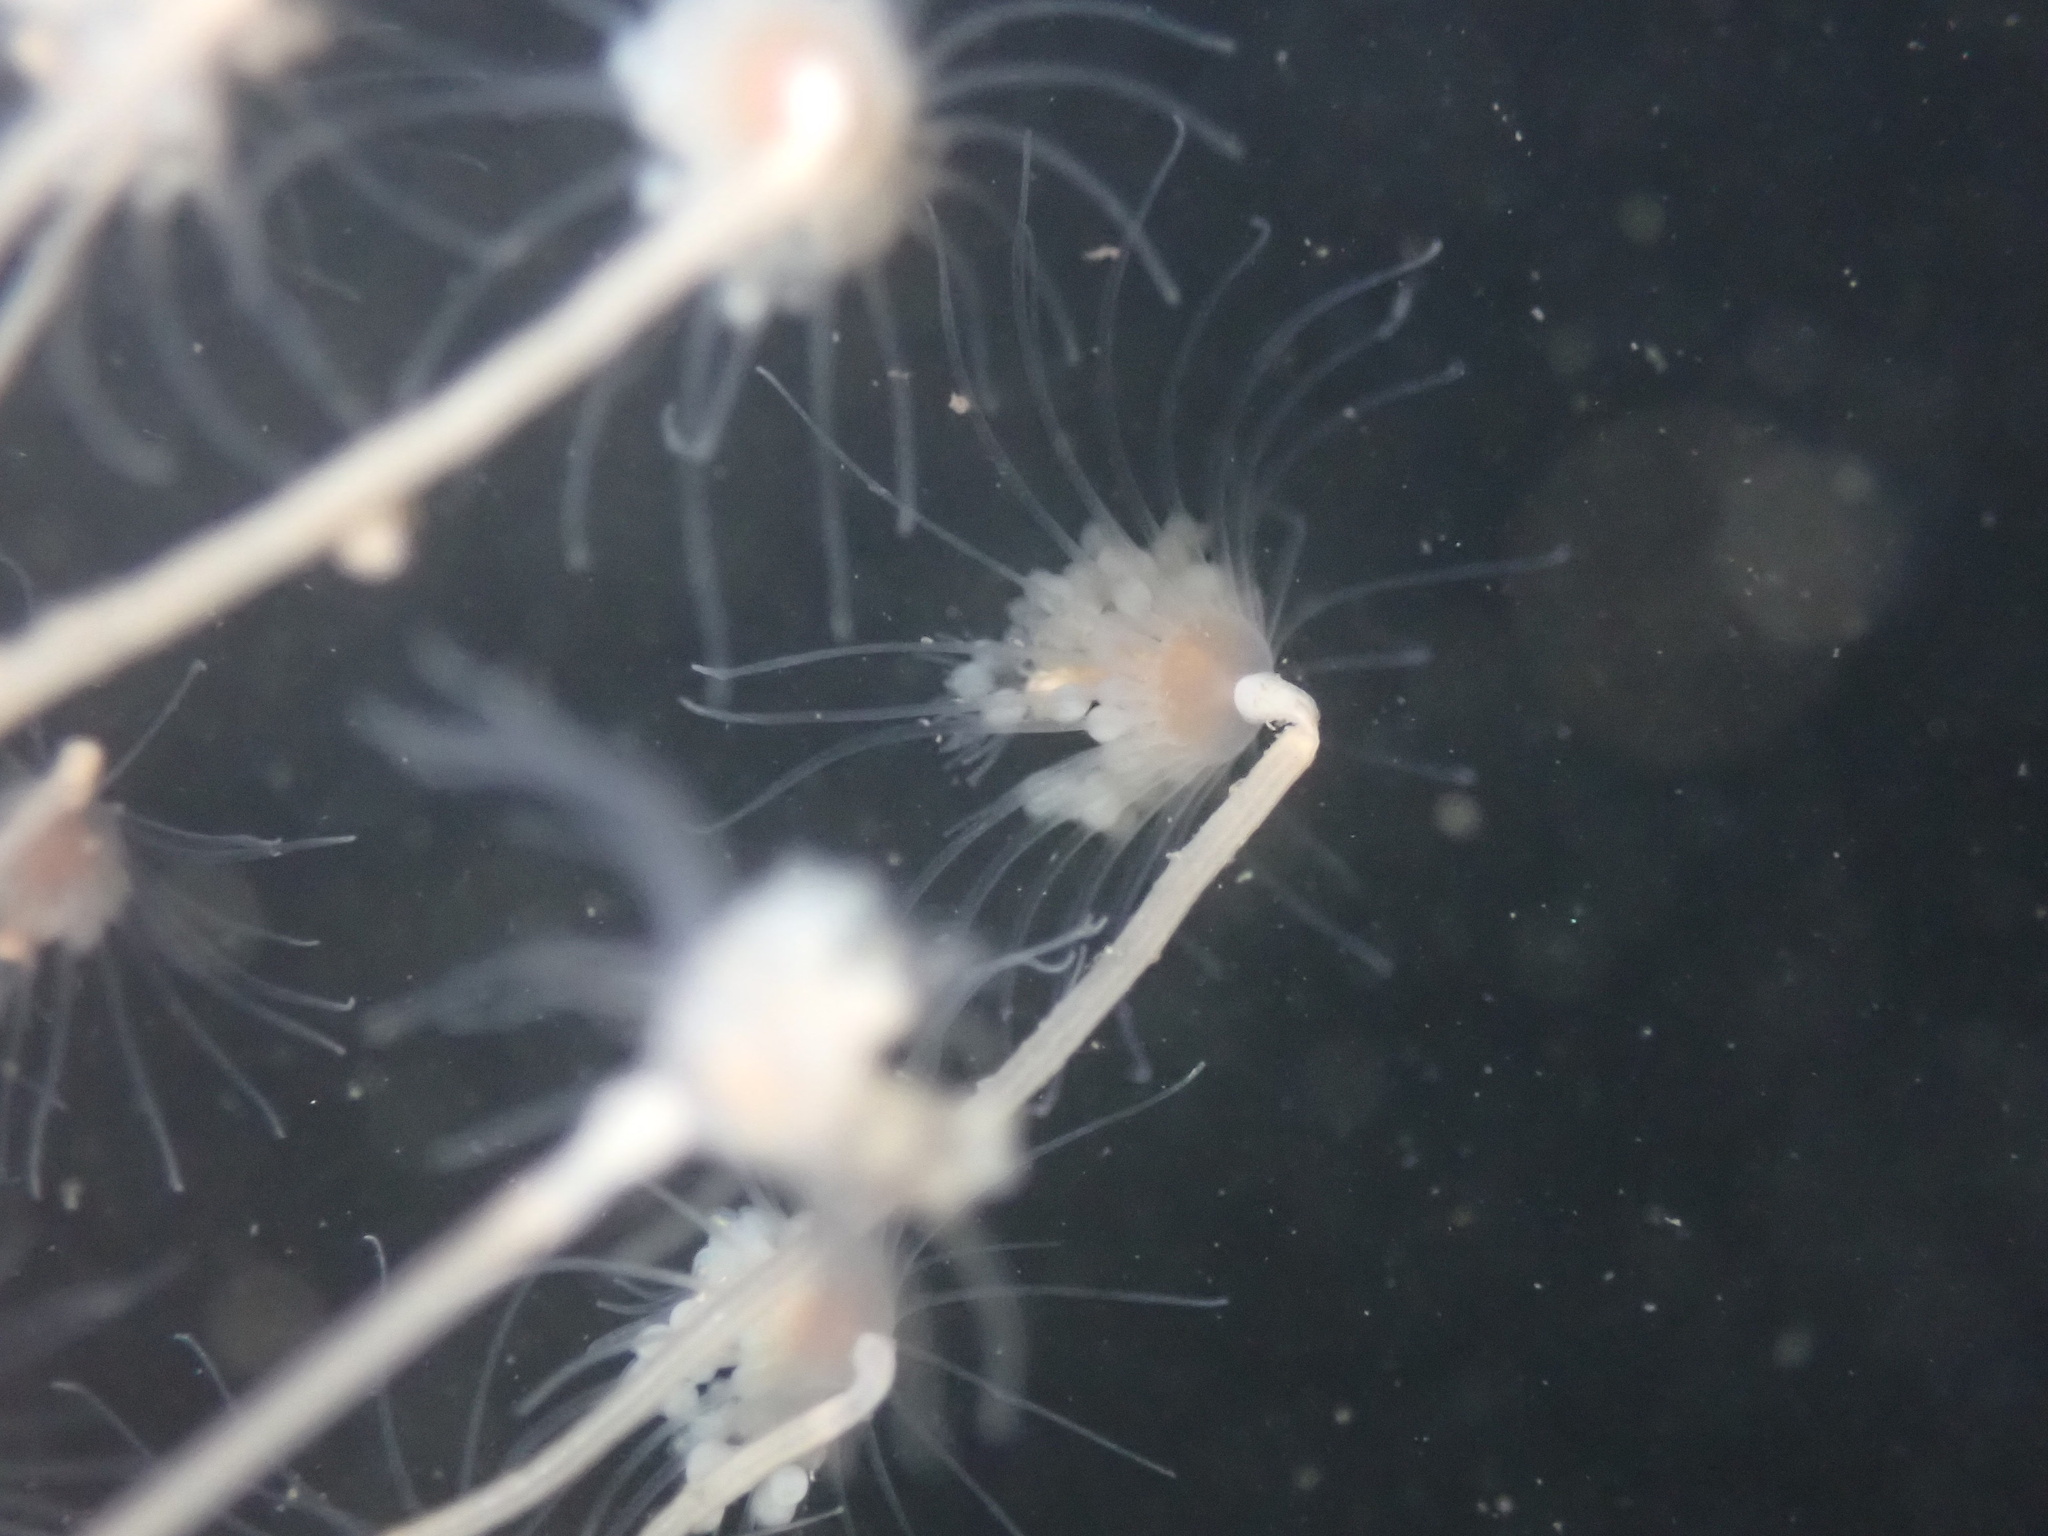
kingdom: Animalia
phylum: Cnidaria
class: Hydrozoa
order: Anthoathecata
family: Tubulariidae
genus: Ectopleura
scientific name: Ectopleura marina
